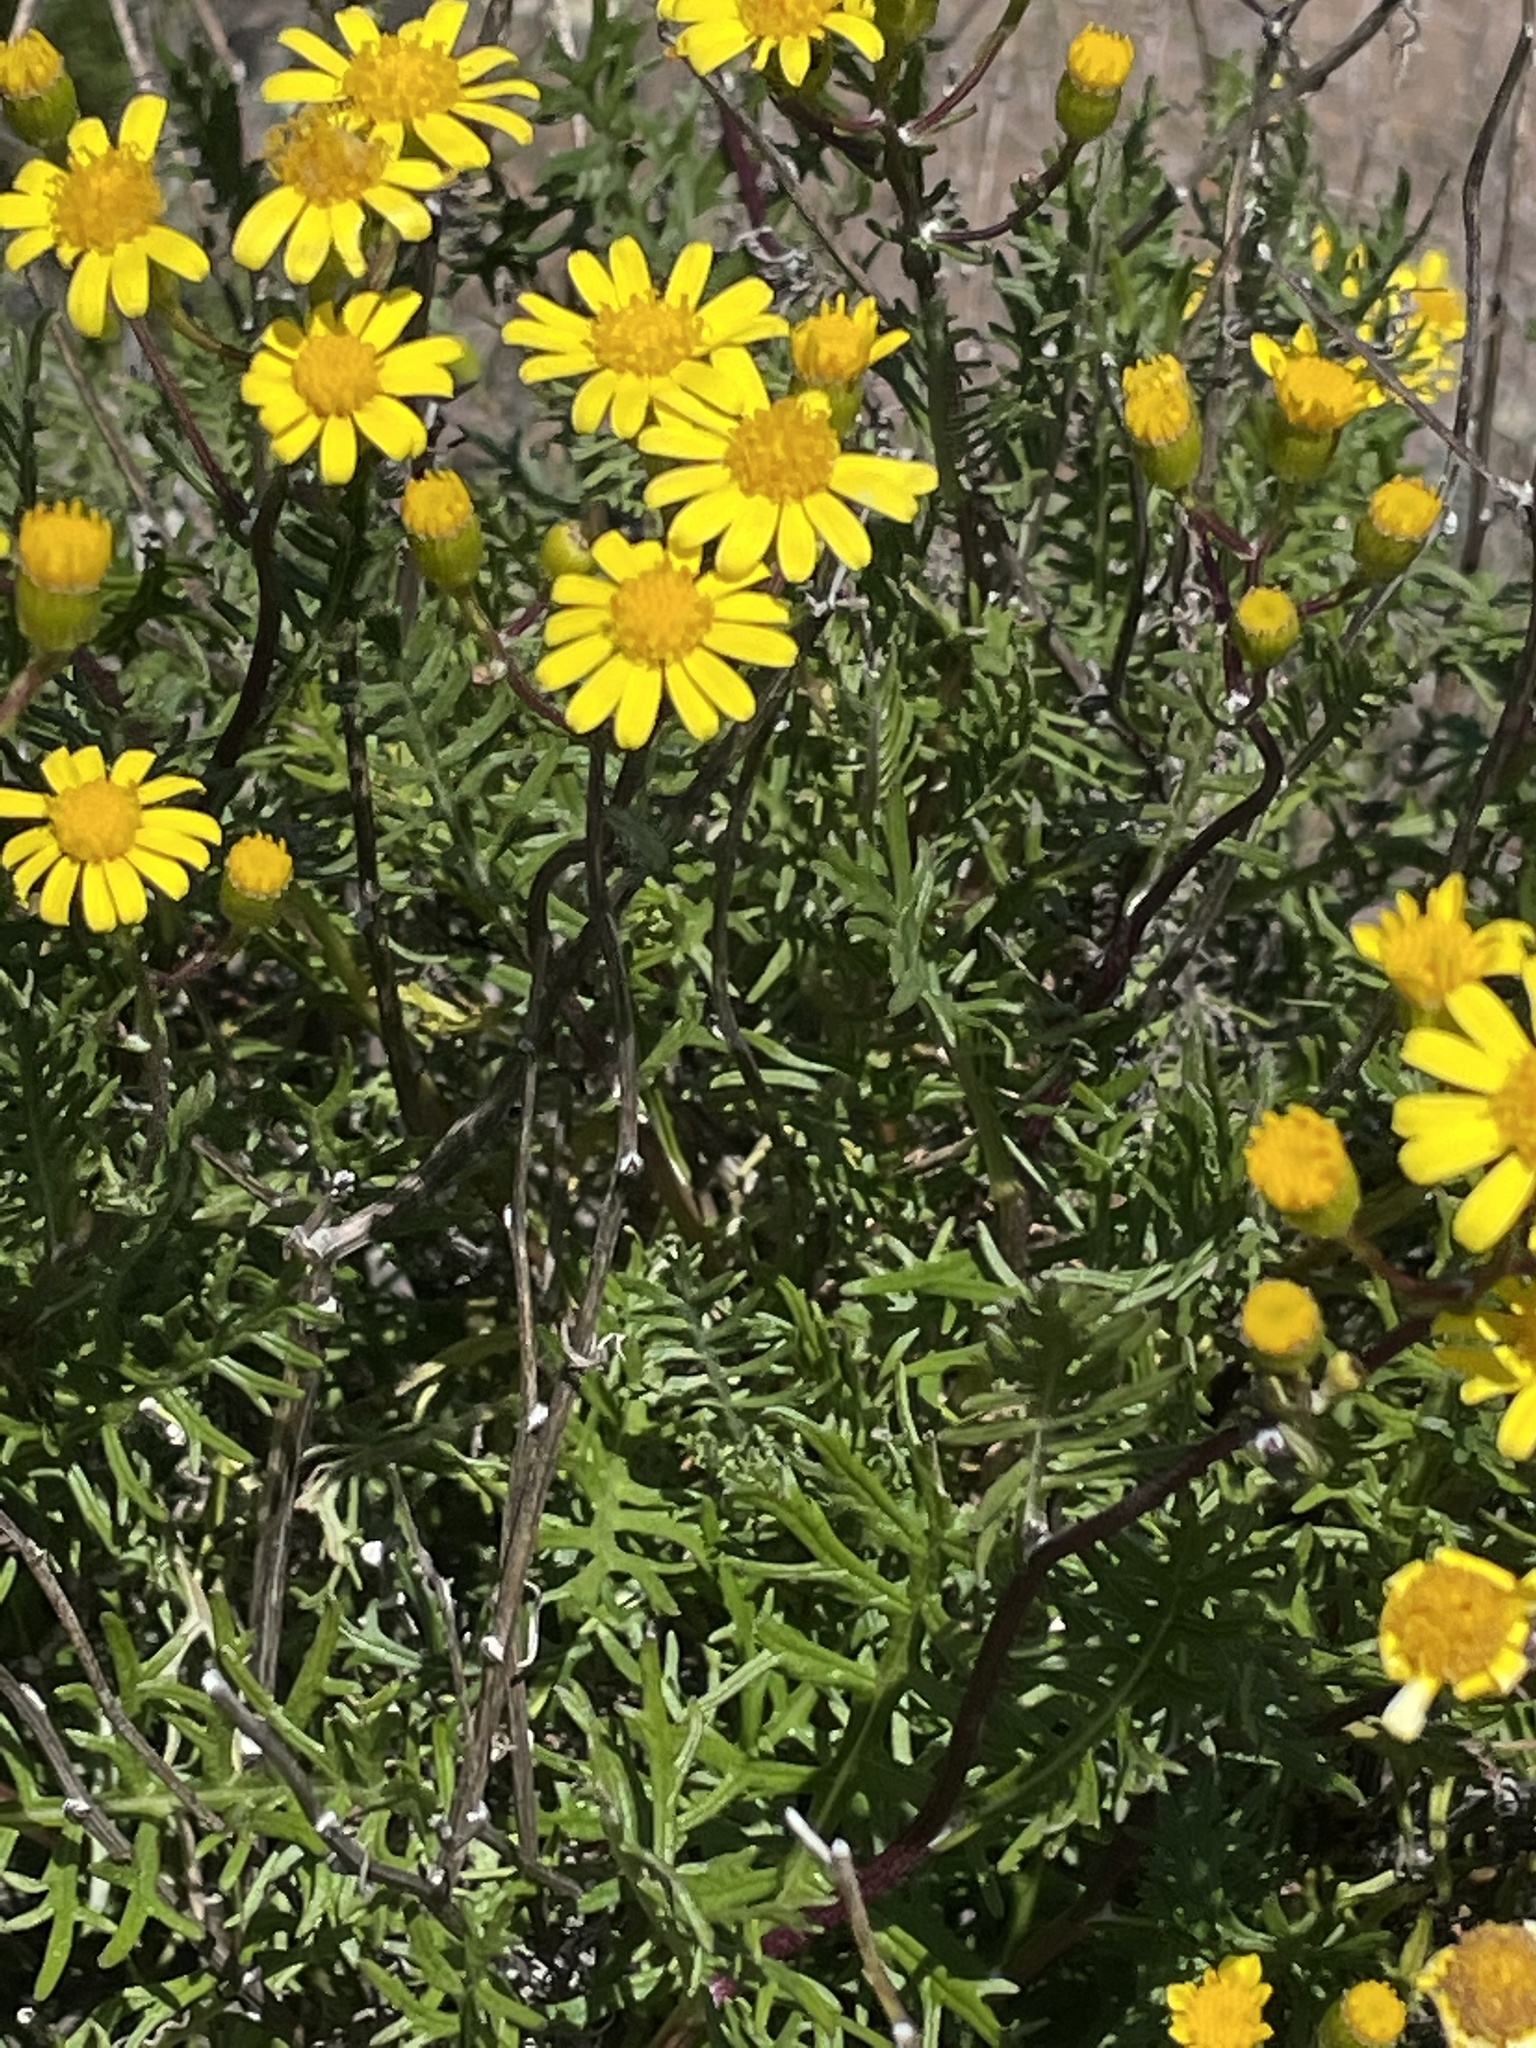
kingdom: Plantae
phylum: Tracheophyta
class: Magnoliopsida
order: Asterales
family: Asteraceae
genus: Senecio
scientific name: Senecio lyonii
